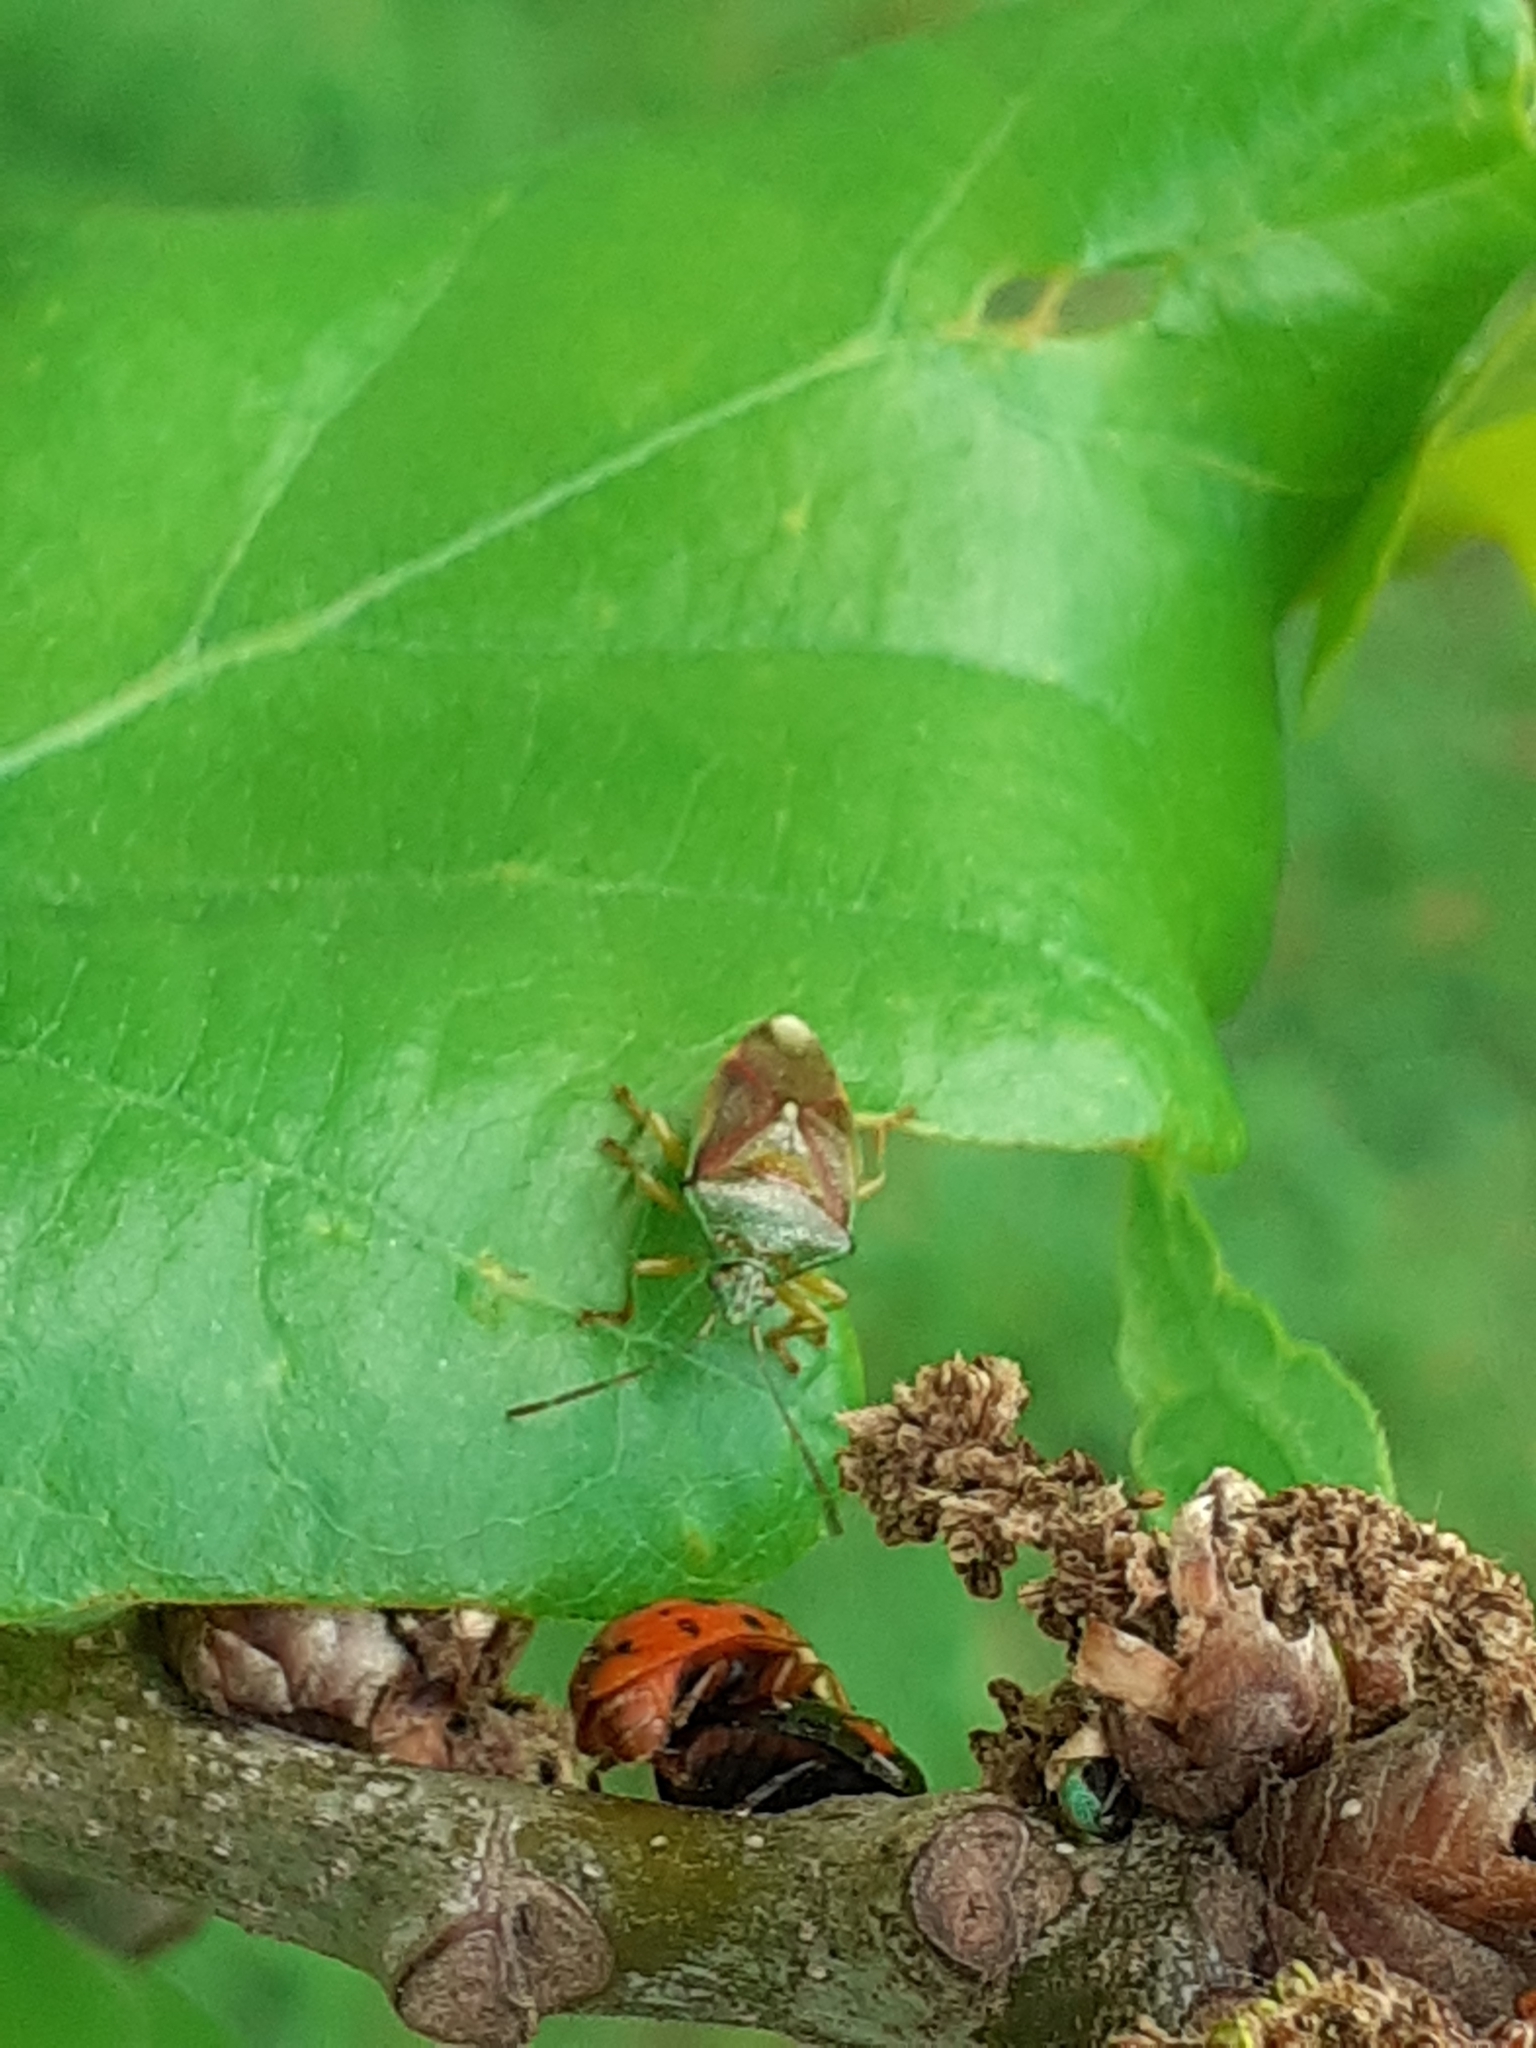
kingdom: Animalia
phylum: Arthropoda
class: Insecta
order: Hemiptera
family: Acanthosomatidae
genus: Elasmostethus
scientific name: Elasmostethus interstinctus
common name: Birch shieldbug
